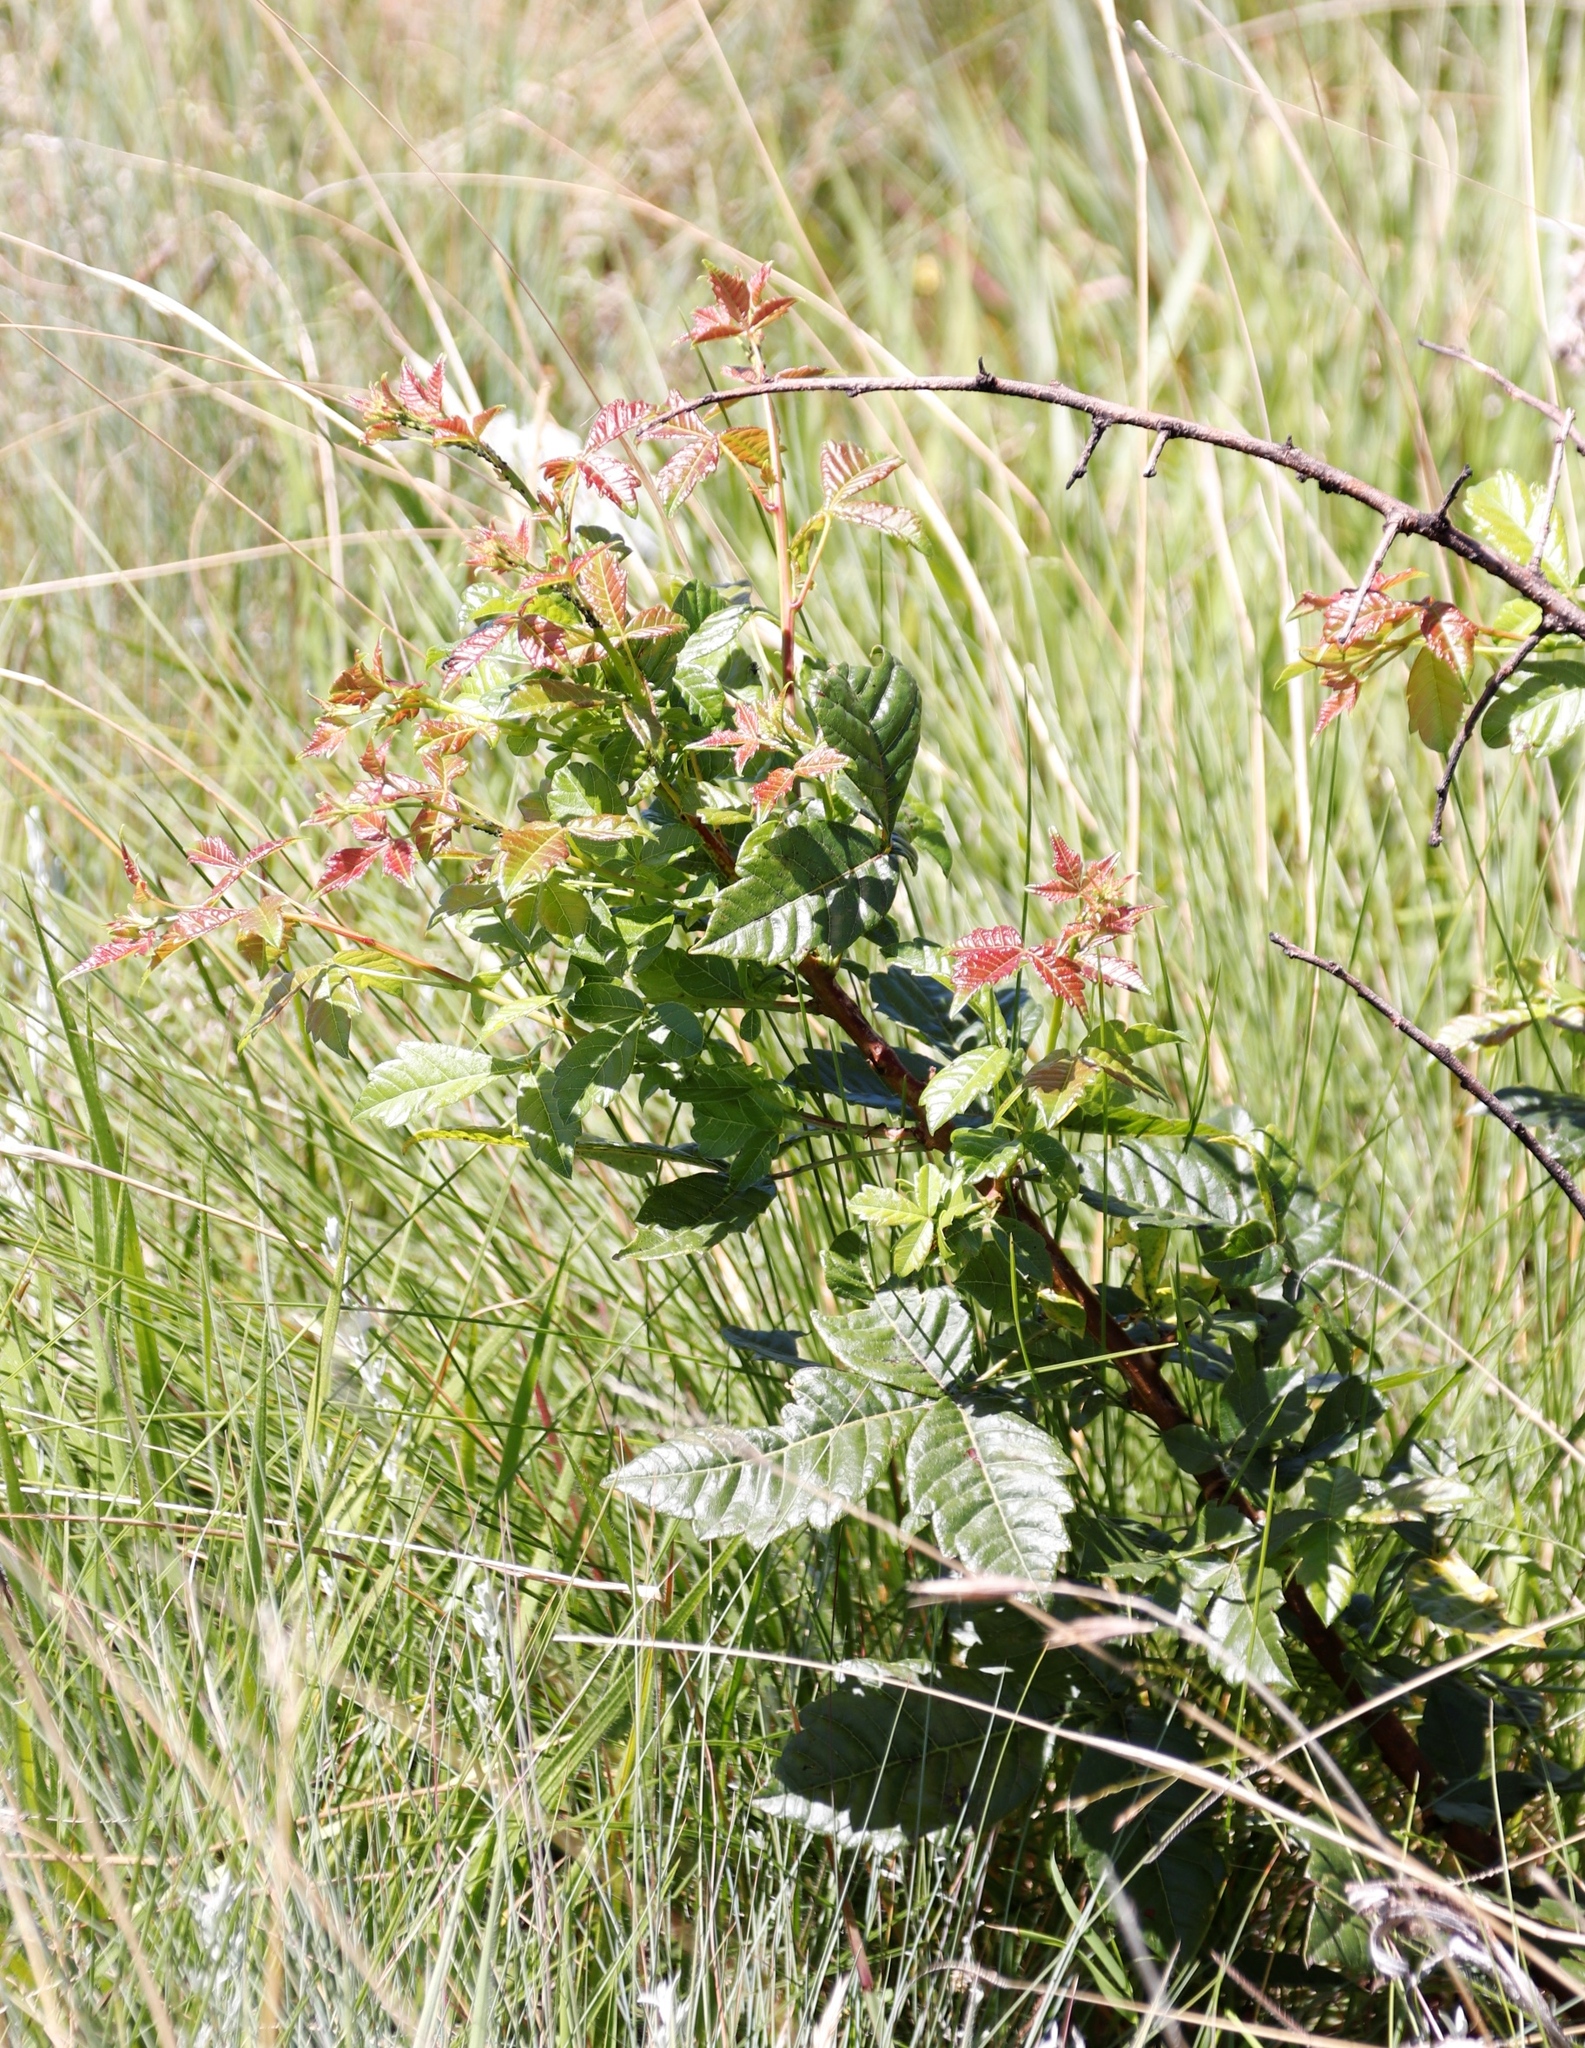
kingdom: Plantae
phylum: Tracheophyta
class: Magnoliopsida
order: Sapindales
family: Anacardiaceae
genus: Searsia
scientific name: Searsia dentata
